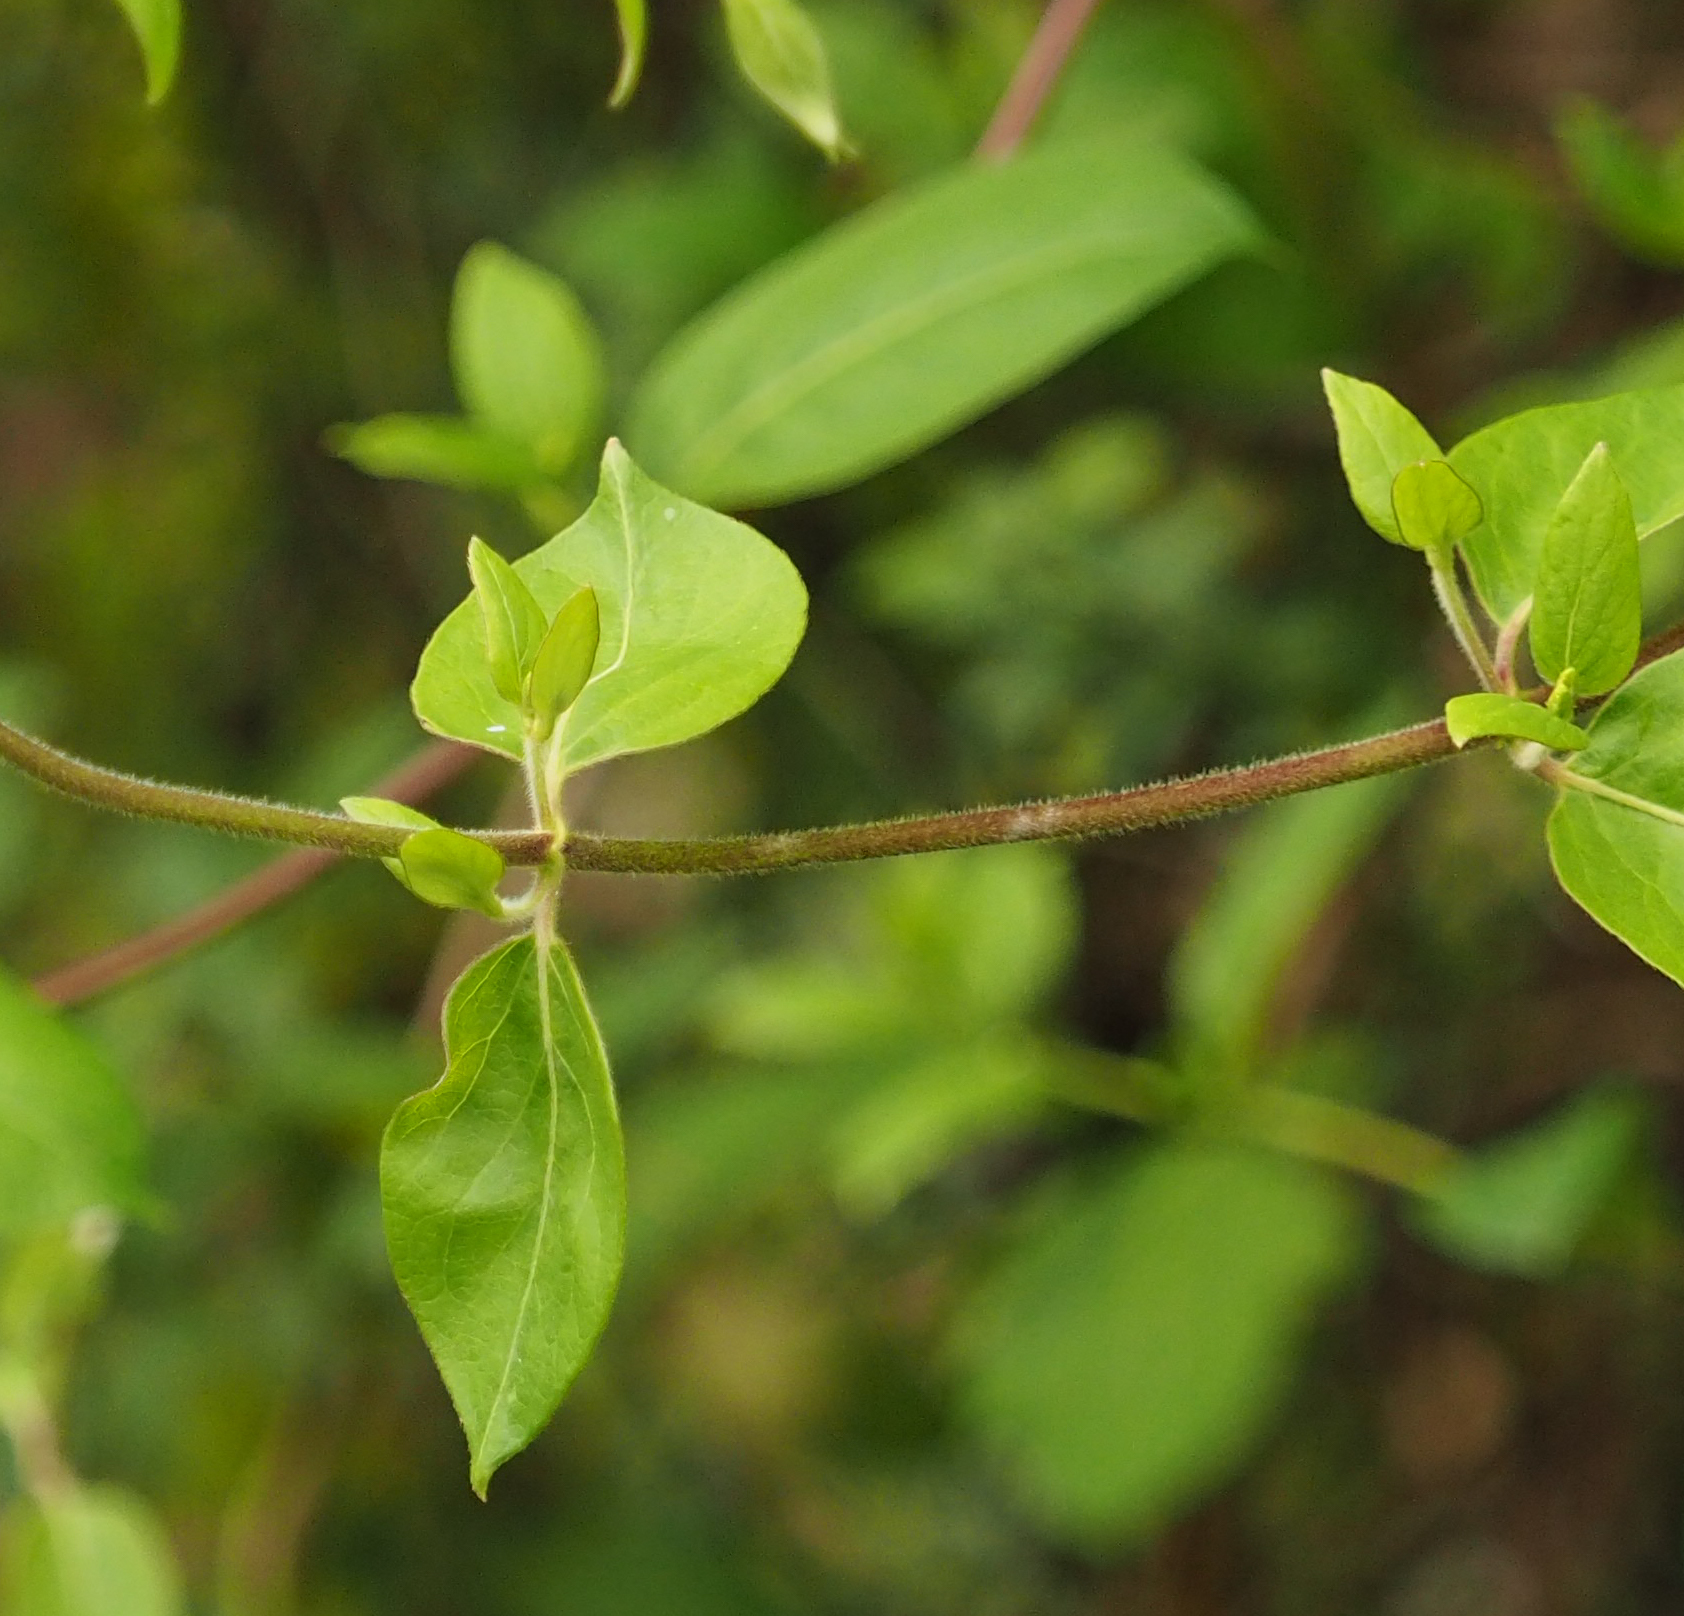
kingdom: Plantae
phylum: Tracheophyta
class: Magnoliopsida
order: Dipsacales
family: Caprifoliaceae
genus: Lonicera
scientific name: Lonicera japonica
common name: Japanese honeysuckle
